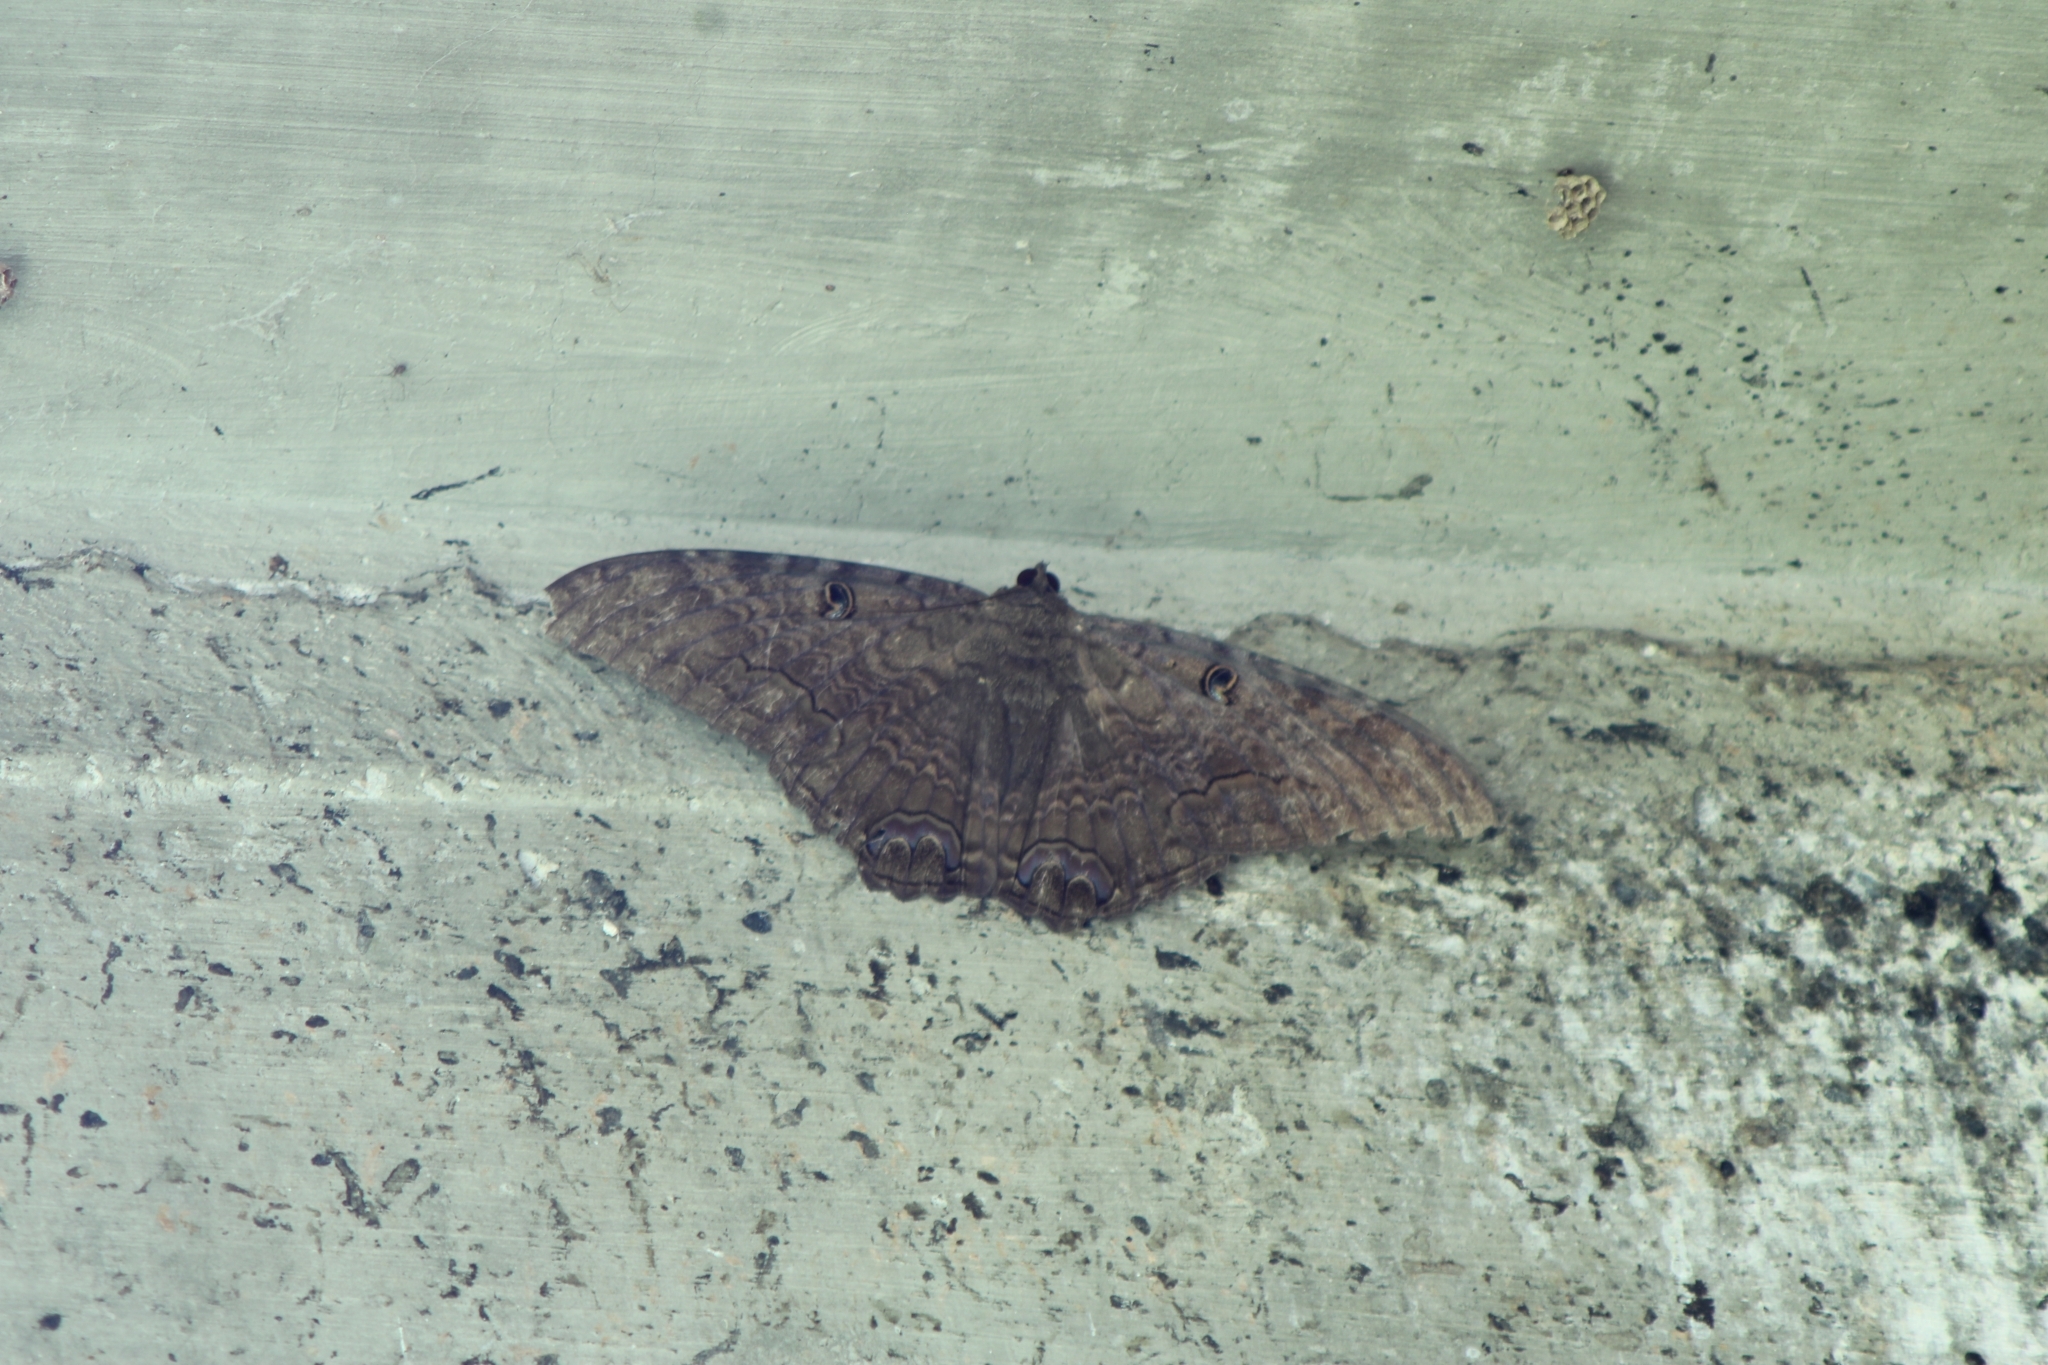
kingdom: Animalia
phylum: Arthropoda
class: Insecta
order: Lepidoptera
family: Erebidae
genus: Ascalapha
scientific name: Ascalapha odorata
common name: Black witch
